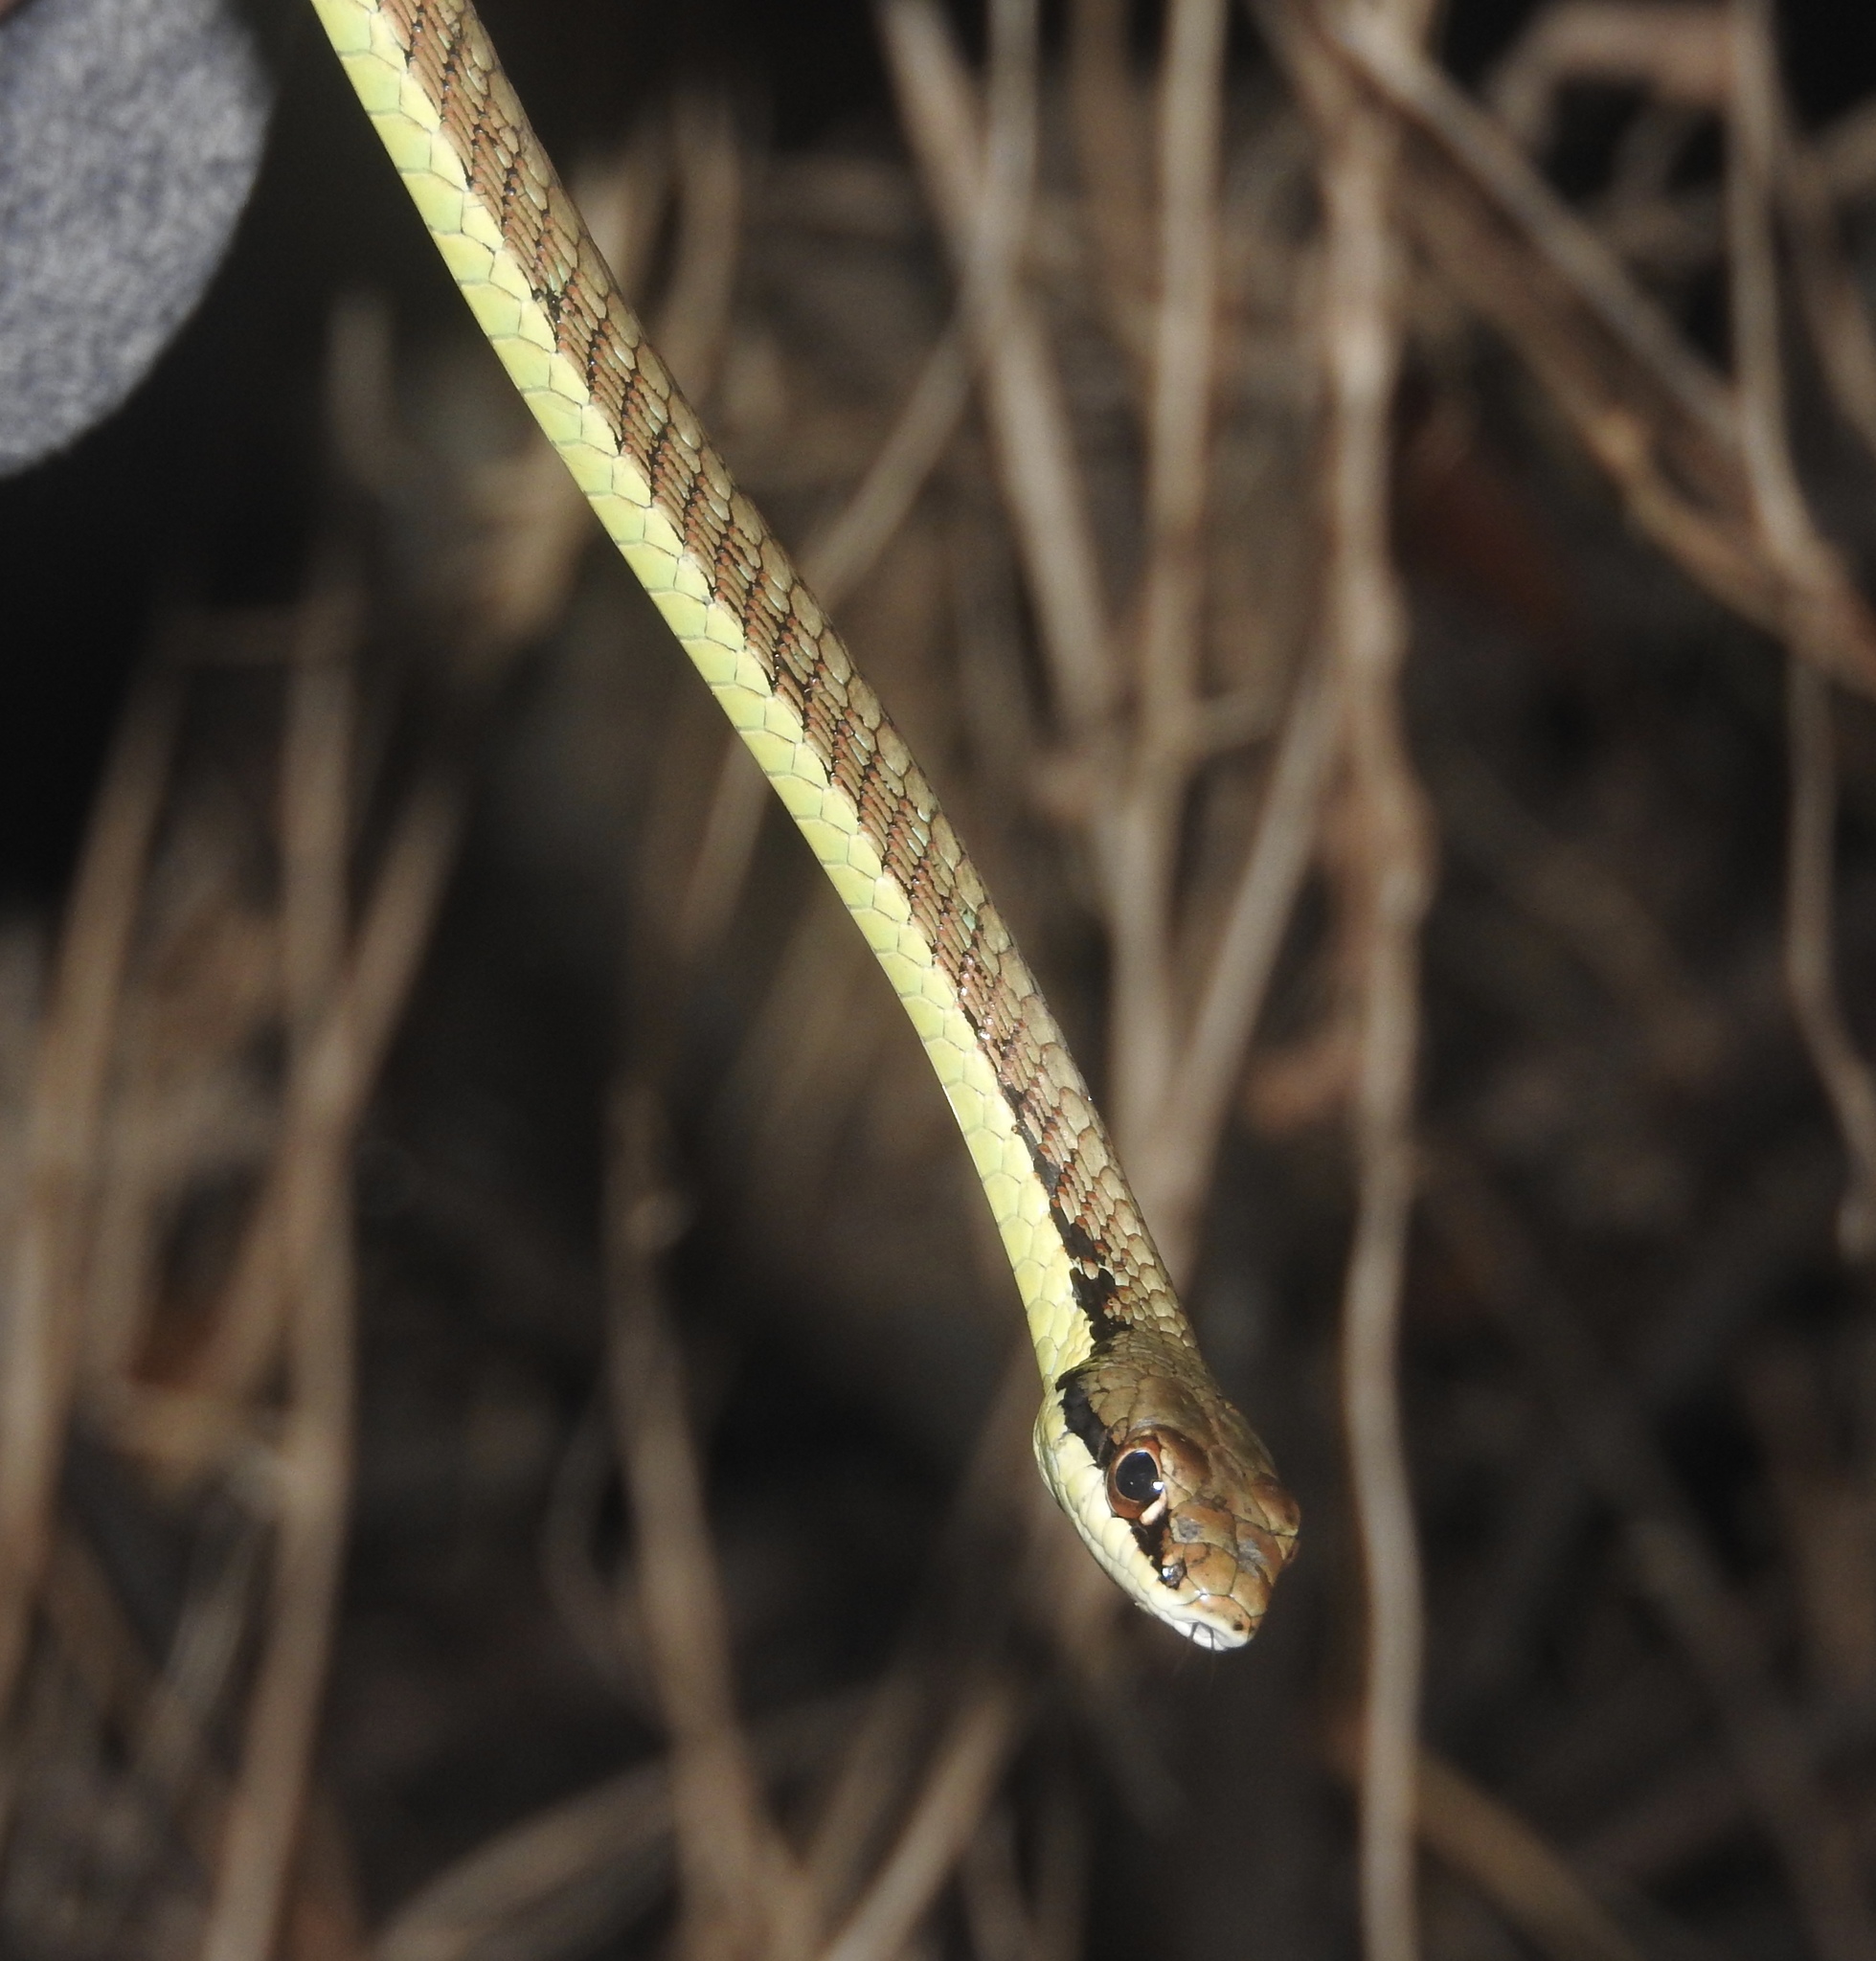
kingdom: Animalia
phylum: Chordata
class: Squamata
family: Colubridae
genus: Dendrelaphis
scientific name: Dendrelaphis inornatus
